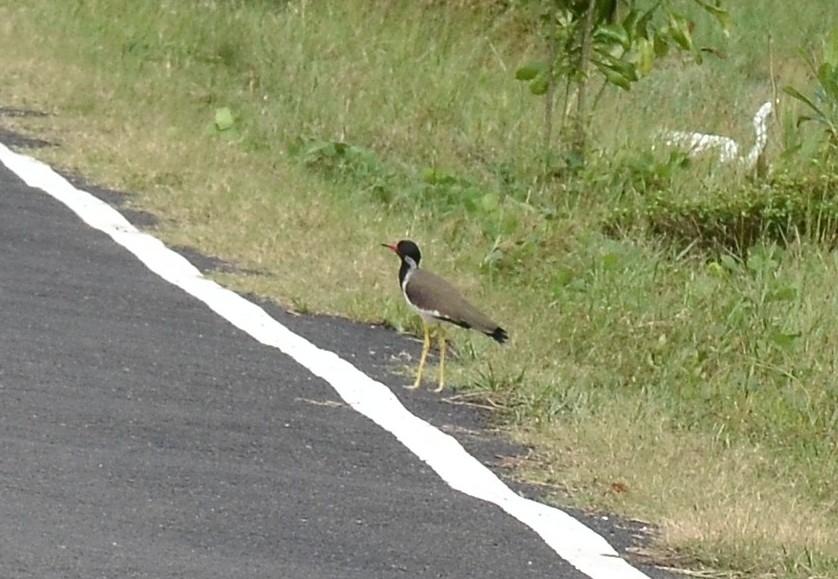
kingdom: Animalia
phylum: Chordata
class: Aves
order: Charadriiformes
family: Charadriidae
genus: Vanellus
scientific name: Vanellus indicus
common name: Red-wattled lapwing
